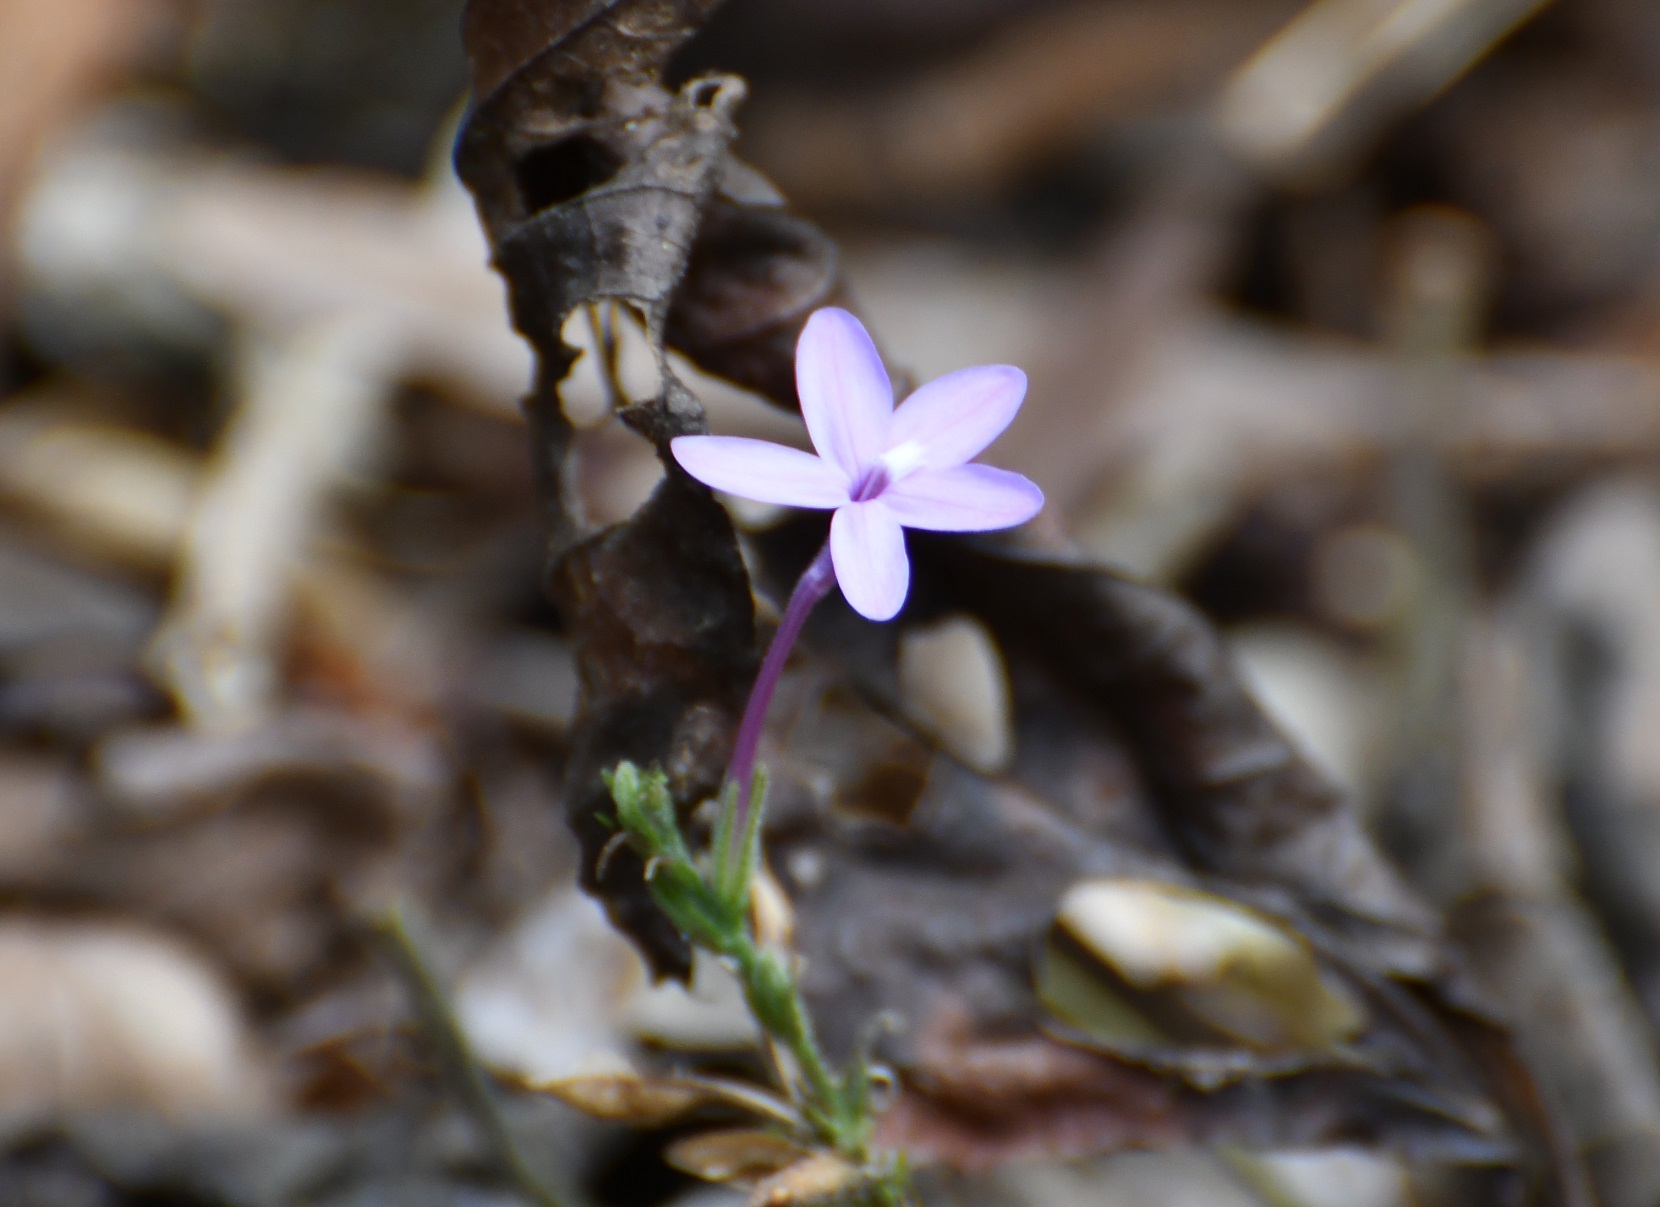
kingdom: Plantae
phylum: Tracheophyta
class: Magnoliopsida
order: Lamiales
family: Acanthaceae
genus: Pseuderanthemum
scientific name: Pseuderanthemum praecox
